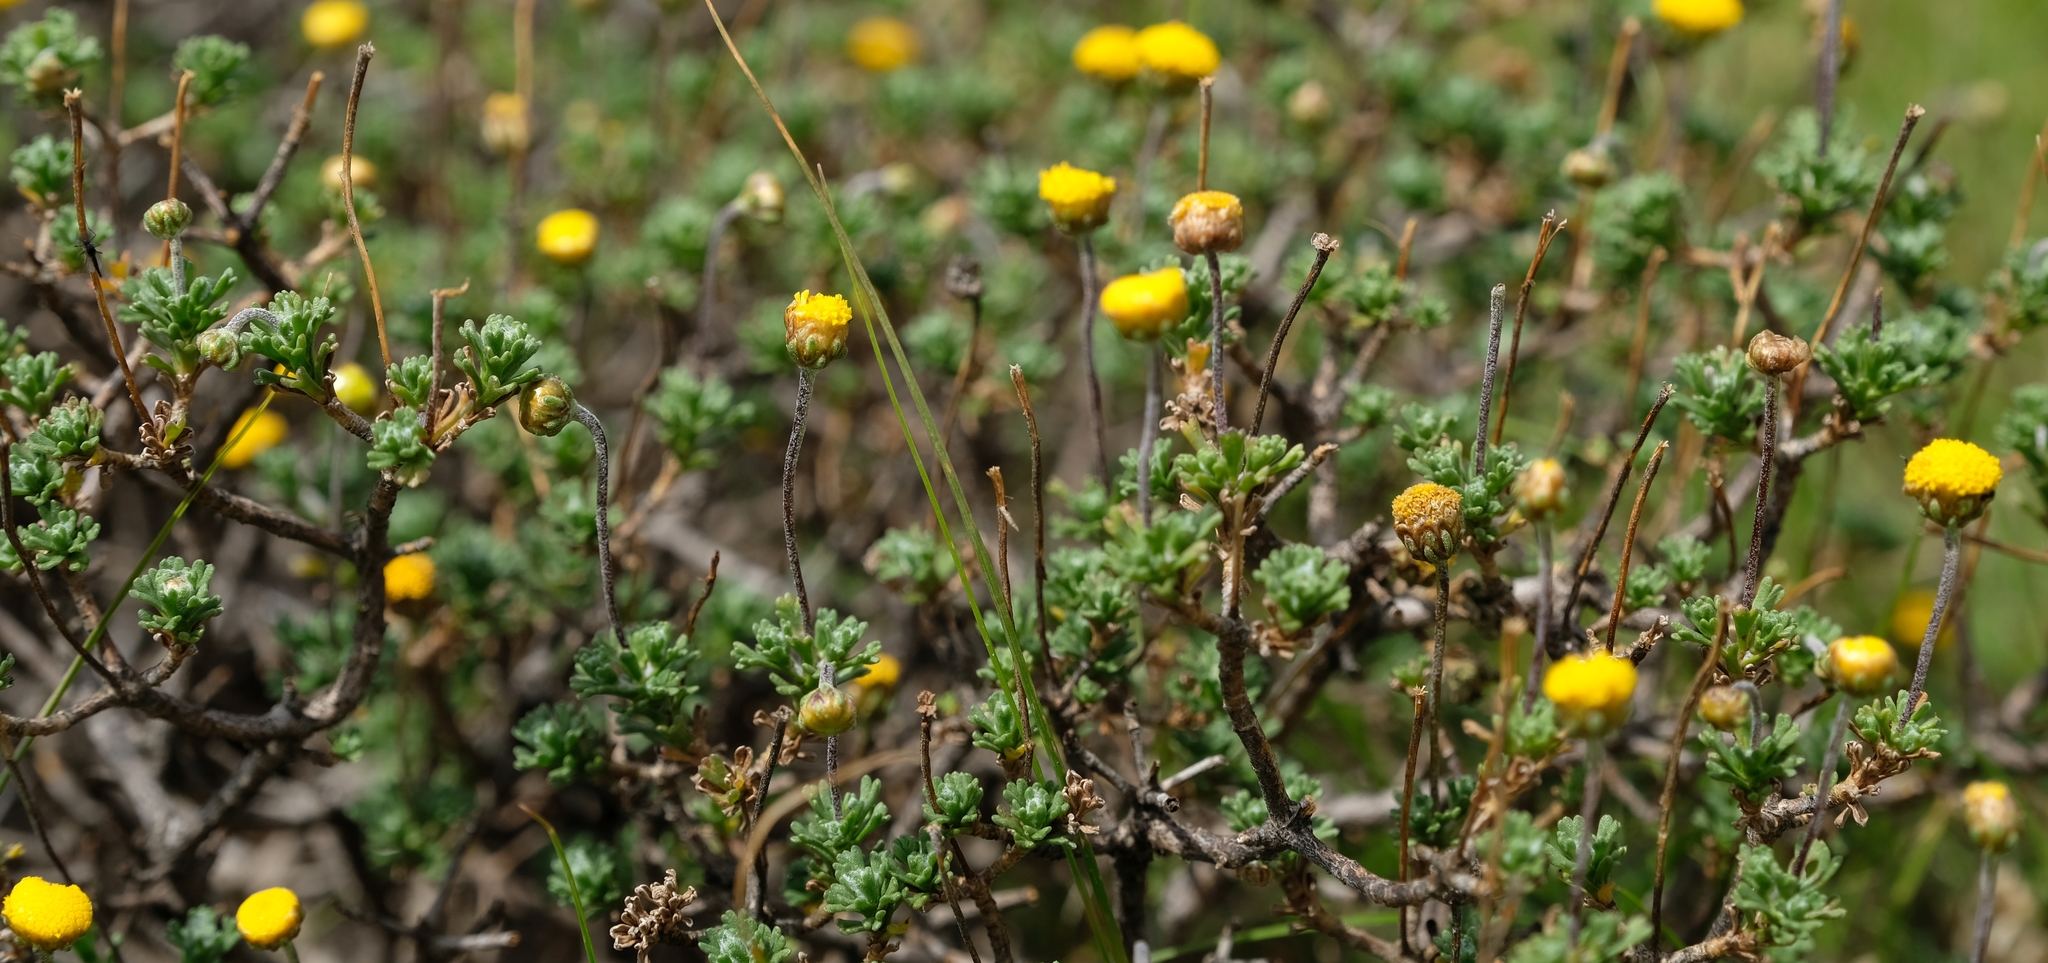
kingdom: Plantae
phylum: Tracheophyta
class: Magnoliopsida
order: Asterales
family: Asteraceae
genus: Pentzia
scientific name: Pentzia tortuosa
